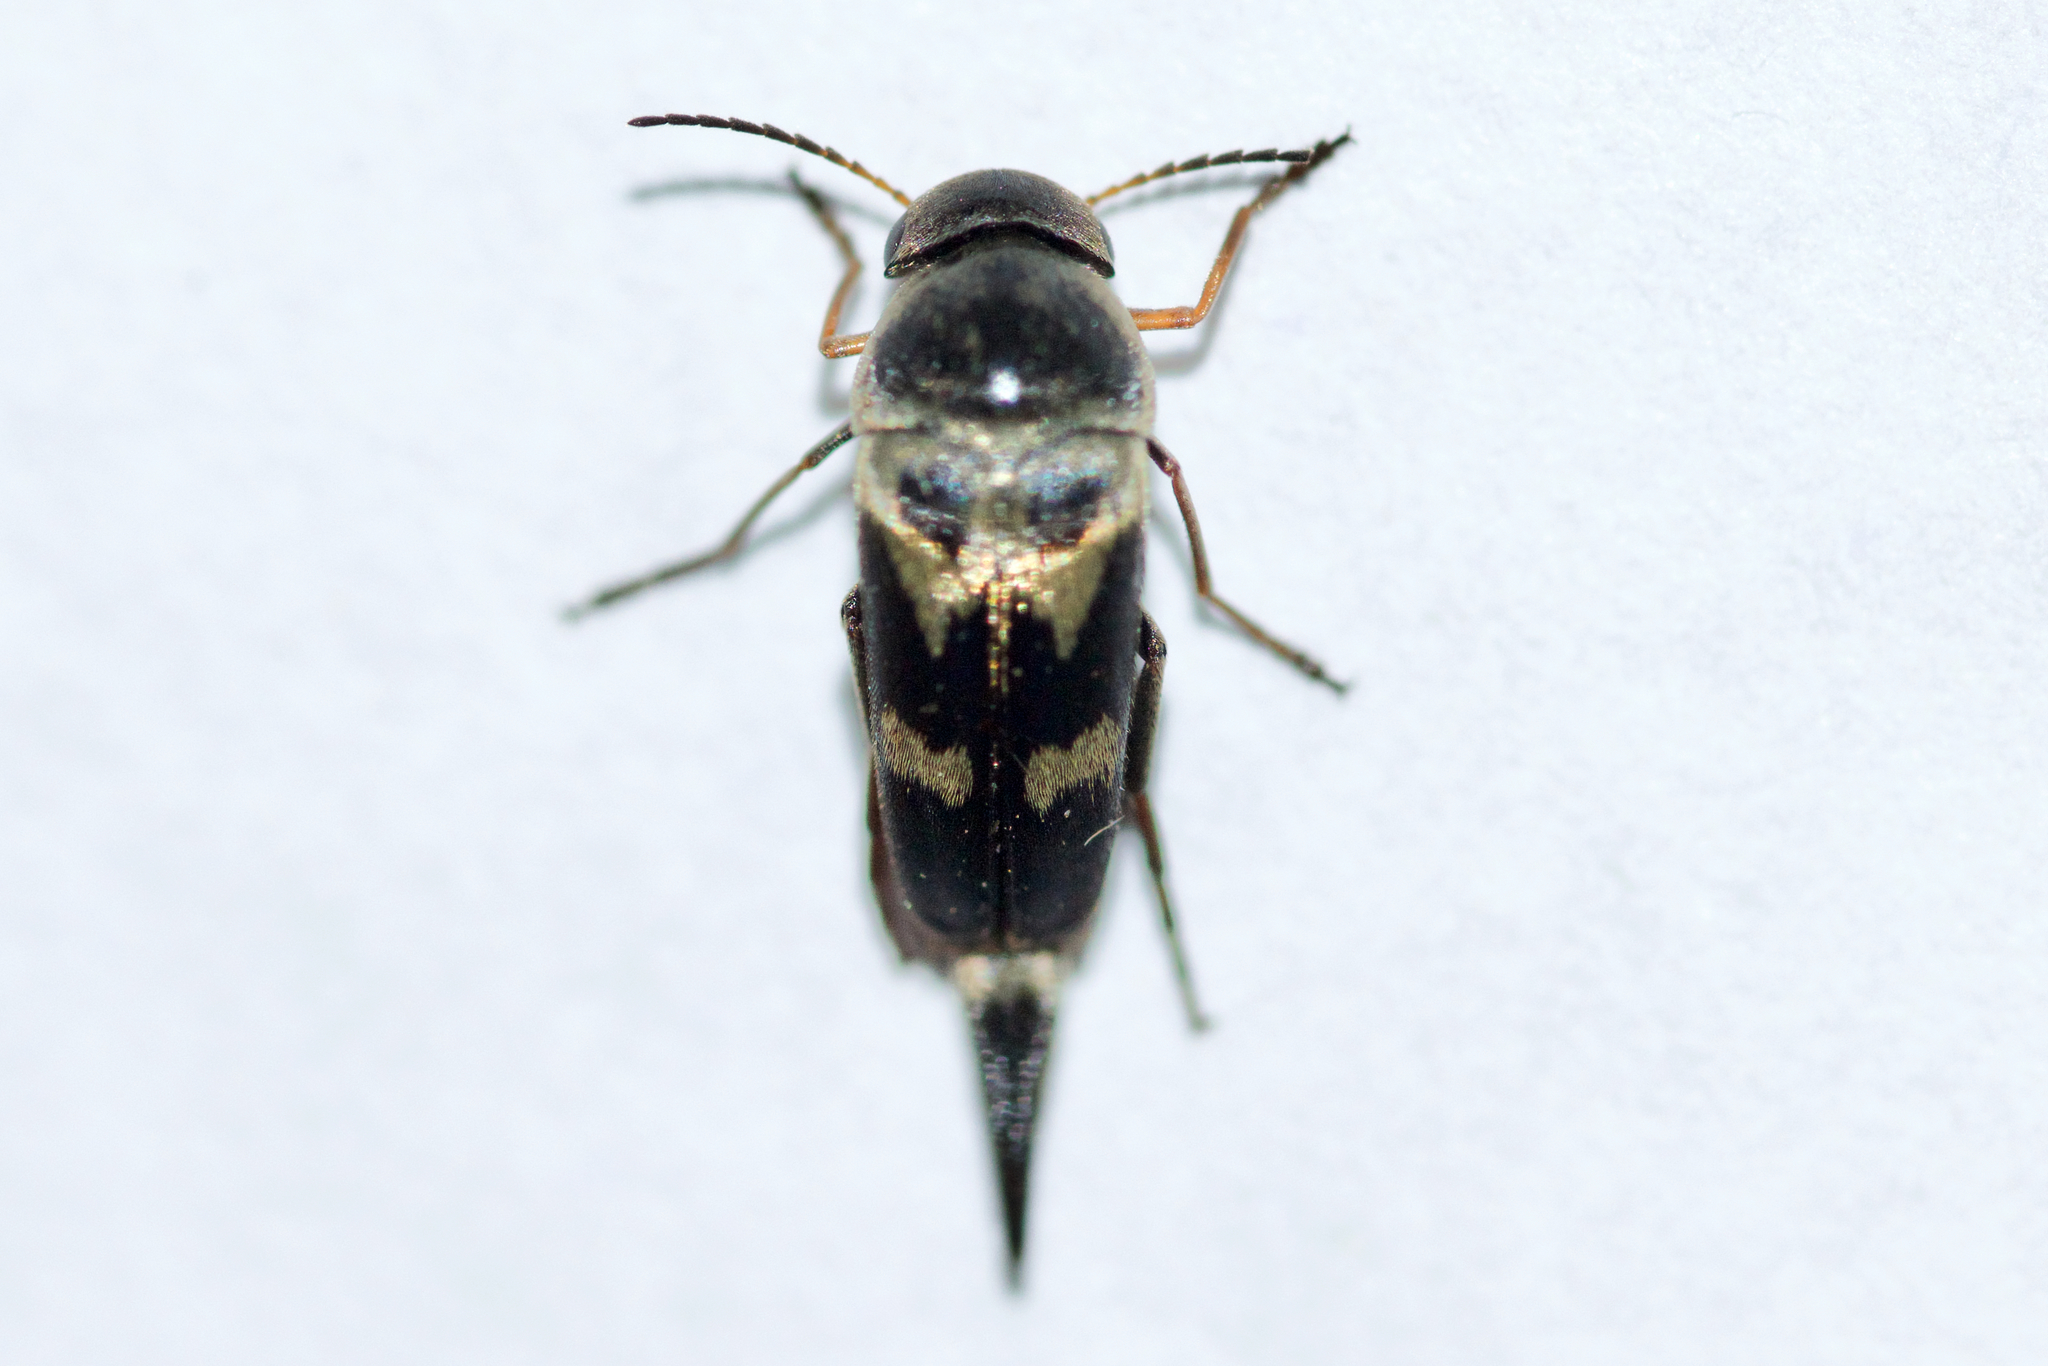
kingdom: Animalia
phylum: Arthropoda
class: Insecta
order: Coleoptera
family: Mordellidae
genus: Glipa
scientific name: Glipa oculata
